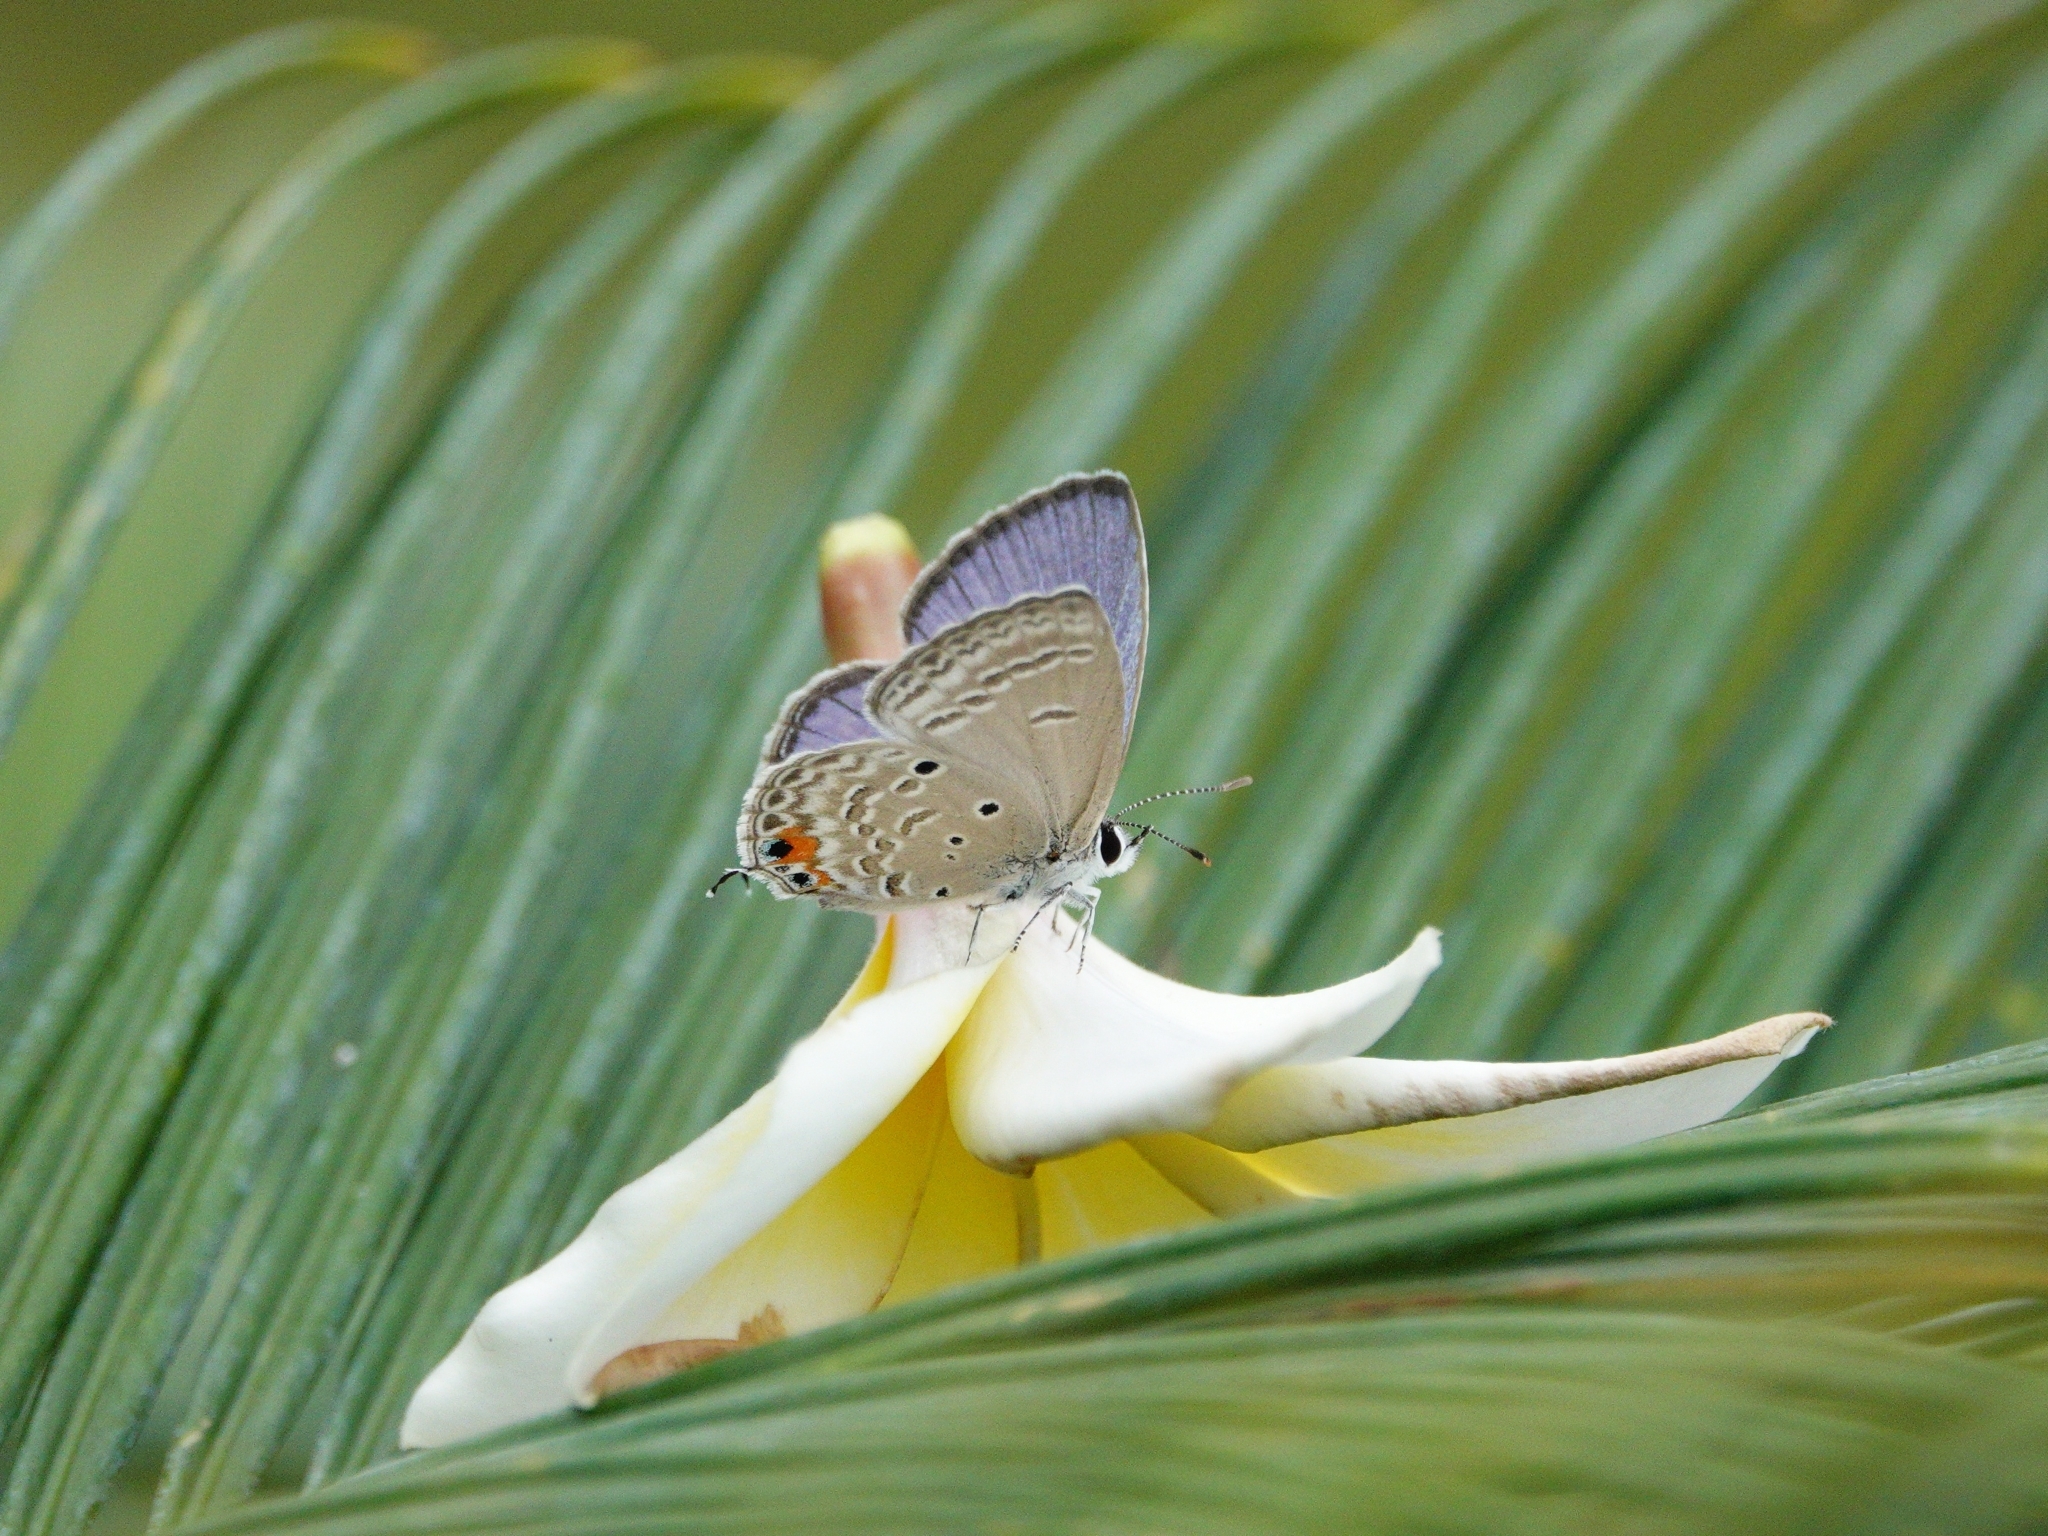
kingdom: Animalia
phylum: Arthropoda
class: Insecta
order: Lepidoptera
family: Lycaenidae
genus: Luthrodes
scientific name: Luthrodes pandava
